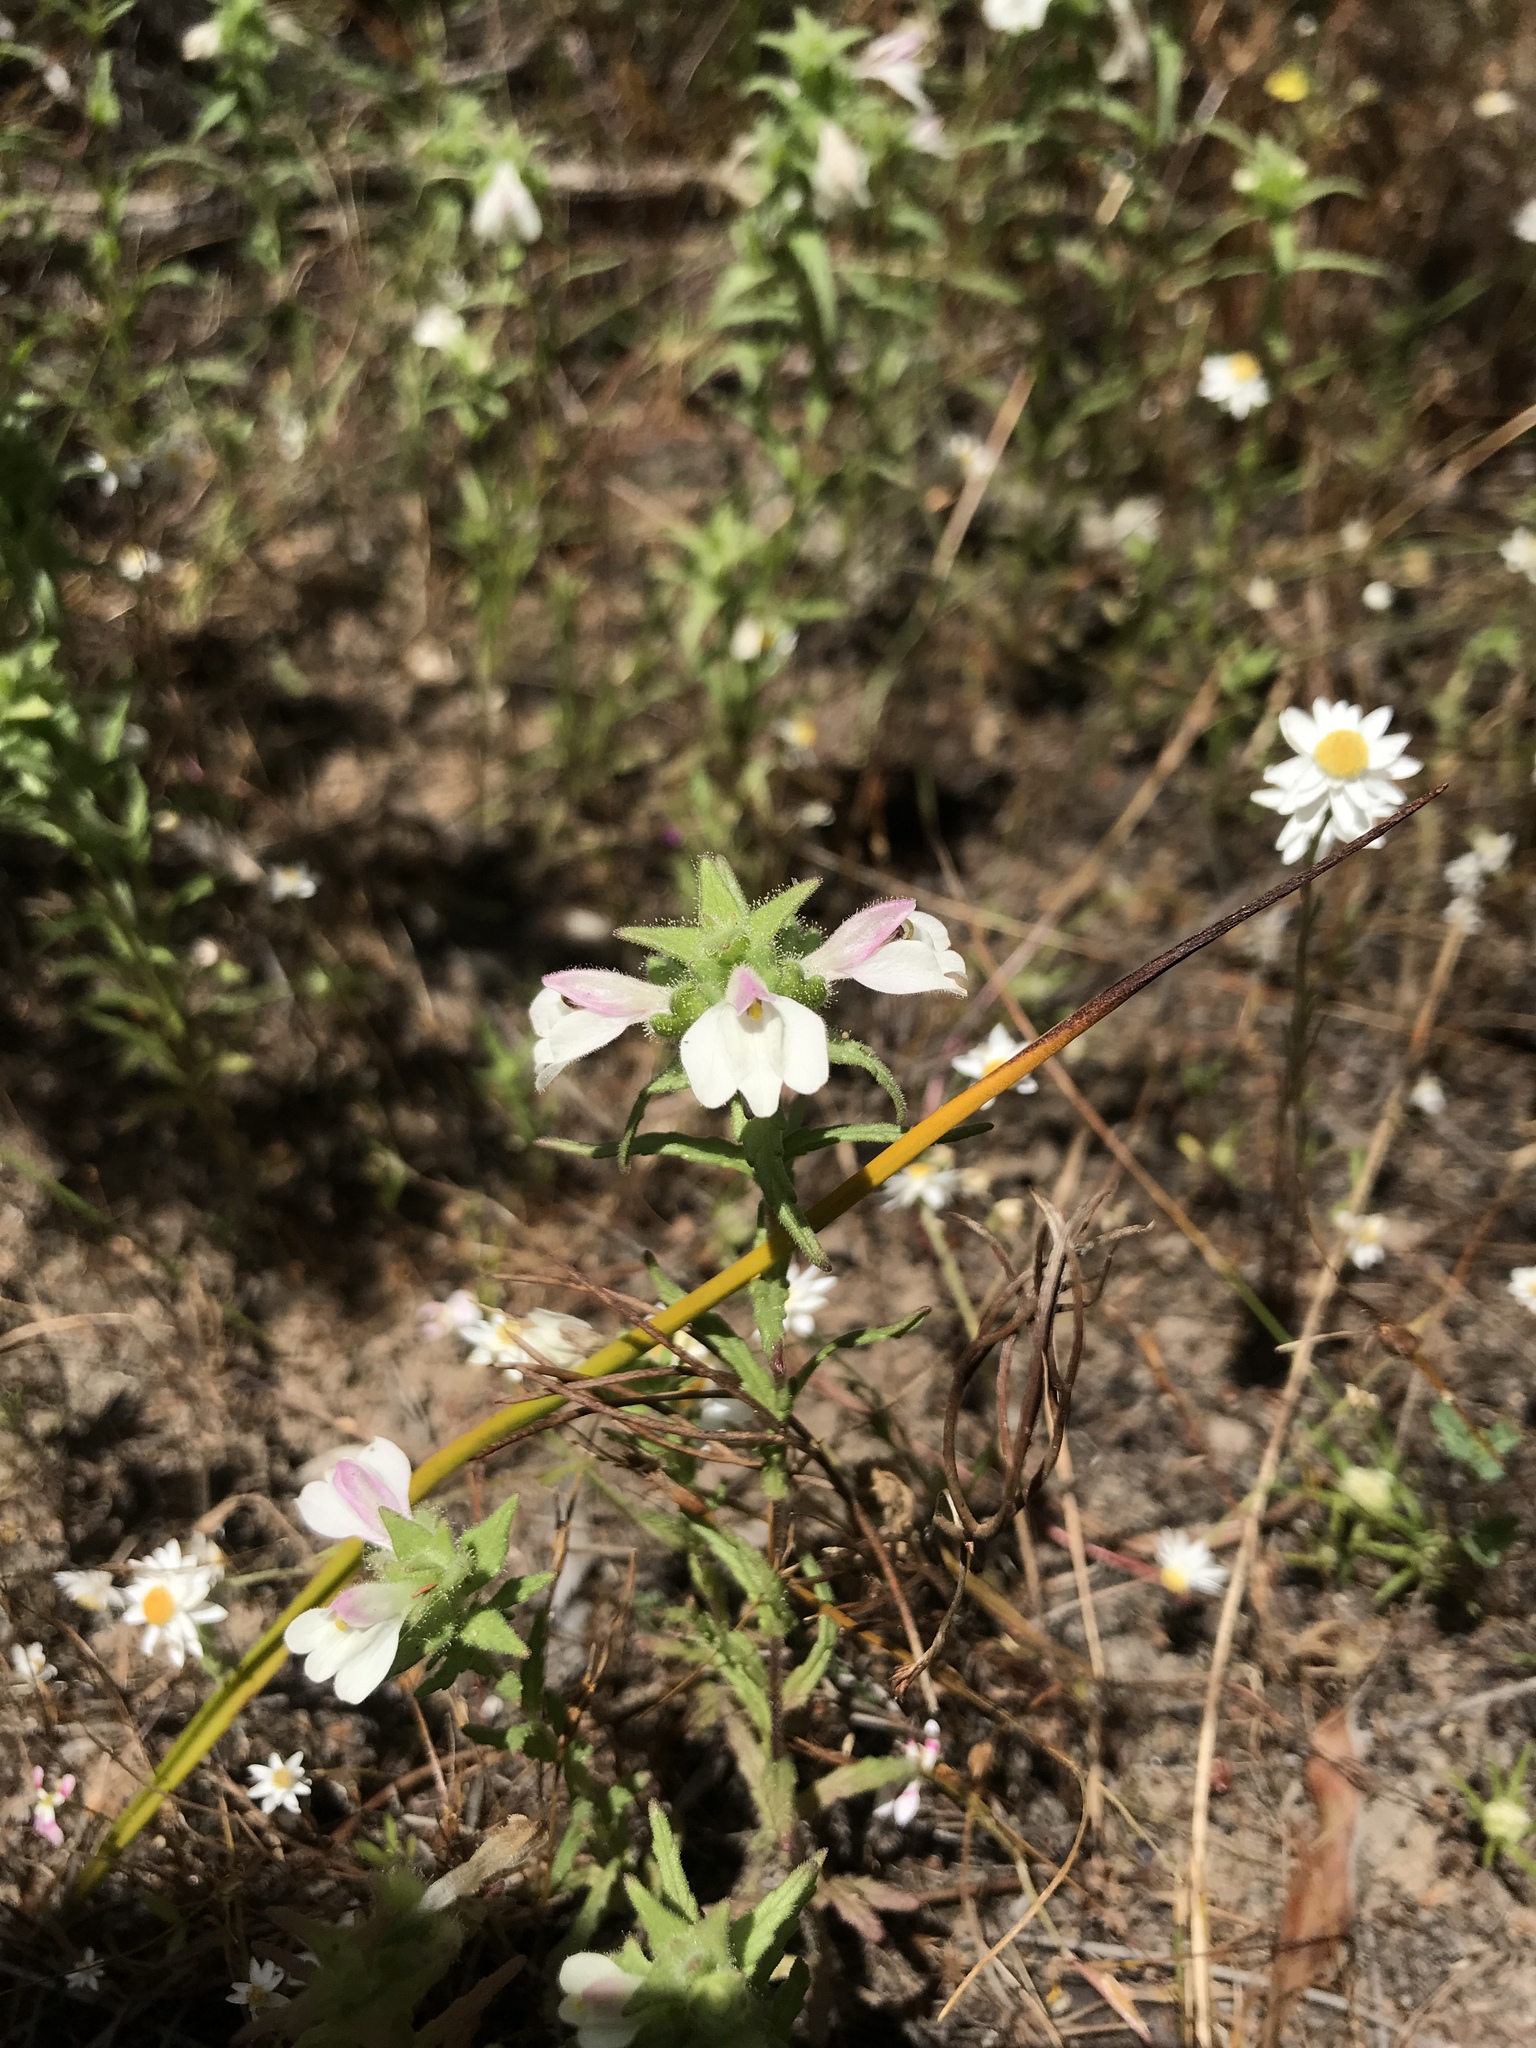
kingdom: Plantae
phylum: Tracheophyta
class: Magnoliopsida
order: Lamiales
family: Orobanchaceae
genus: Bellardia
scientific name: Bellardia trixago
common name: Mediterranean lineseed
